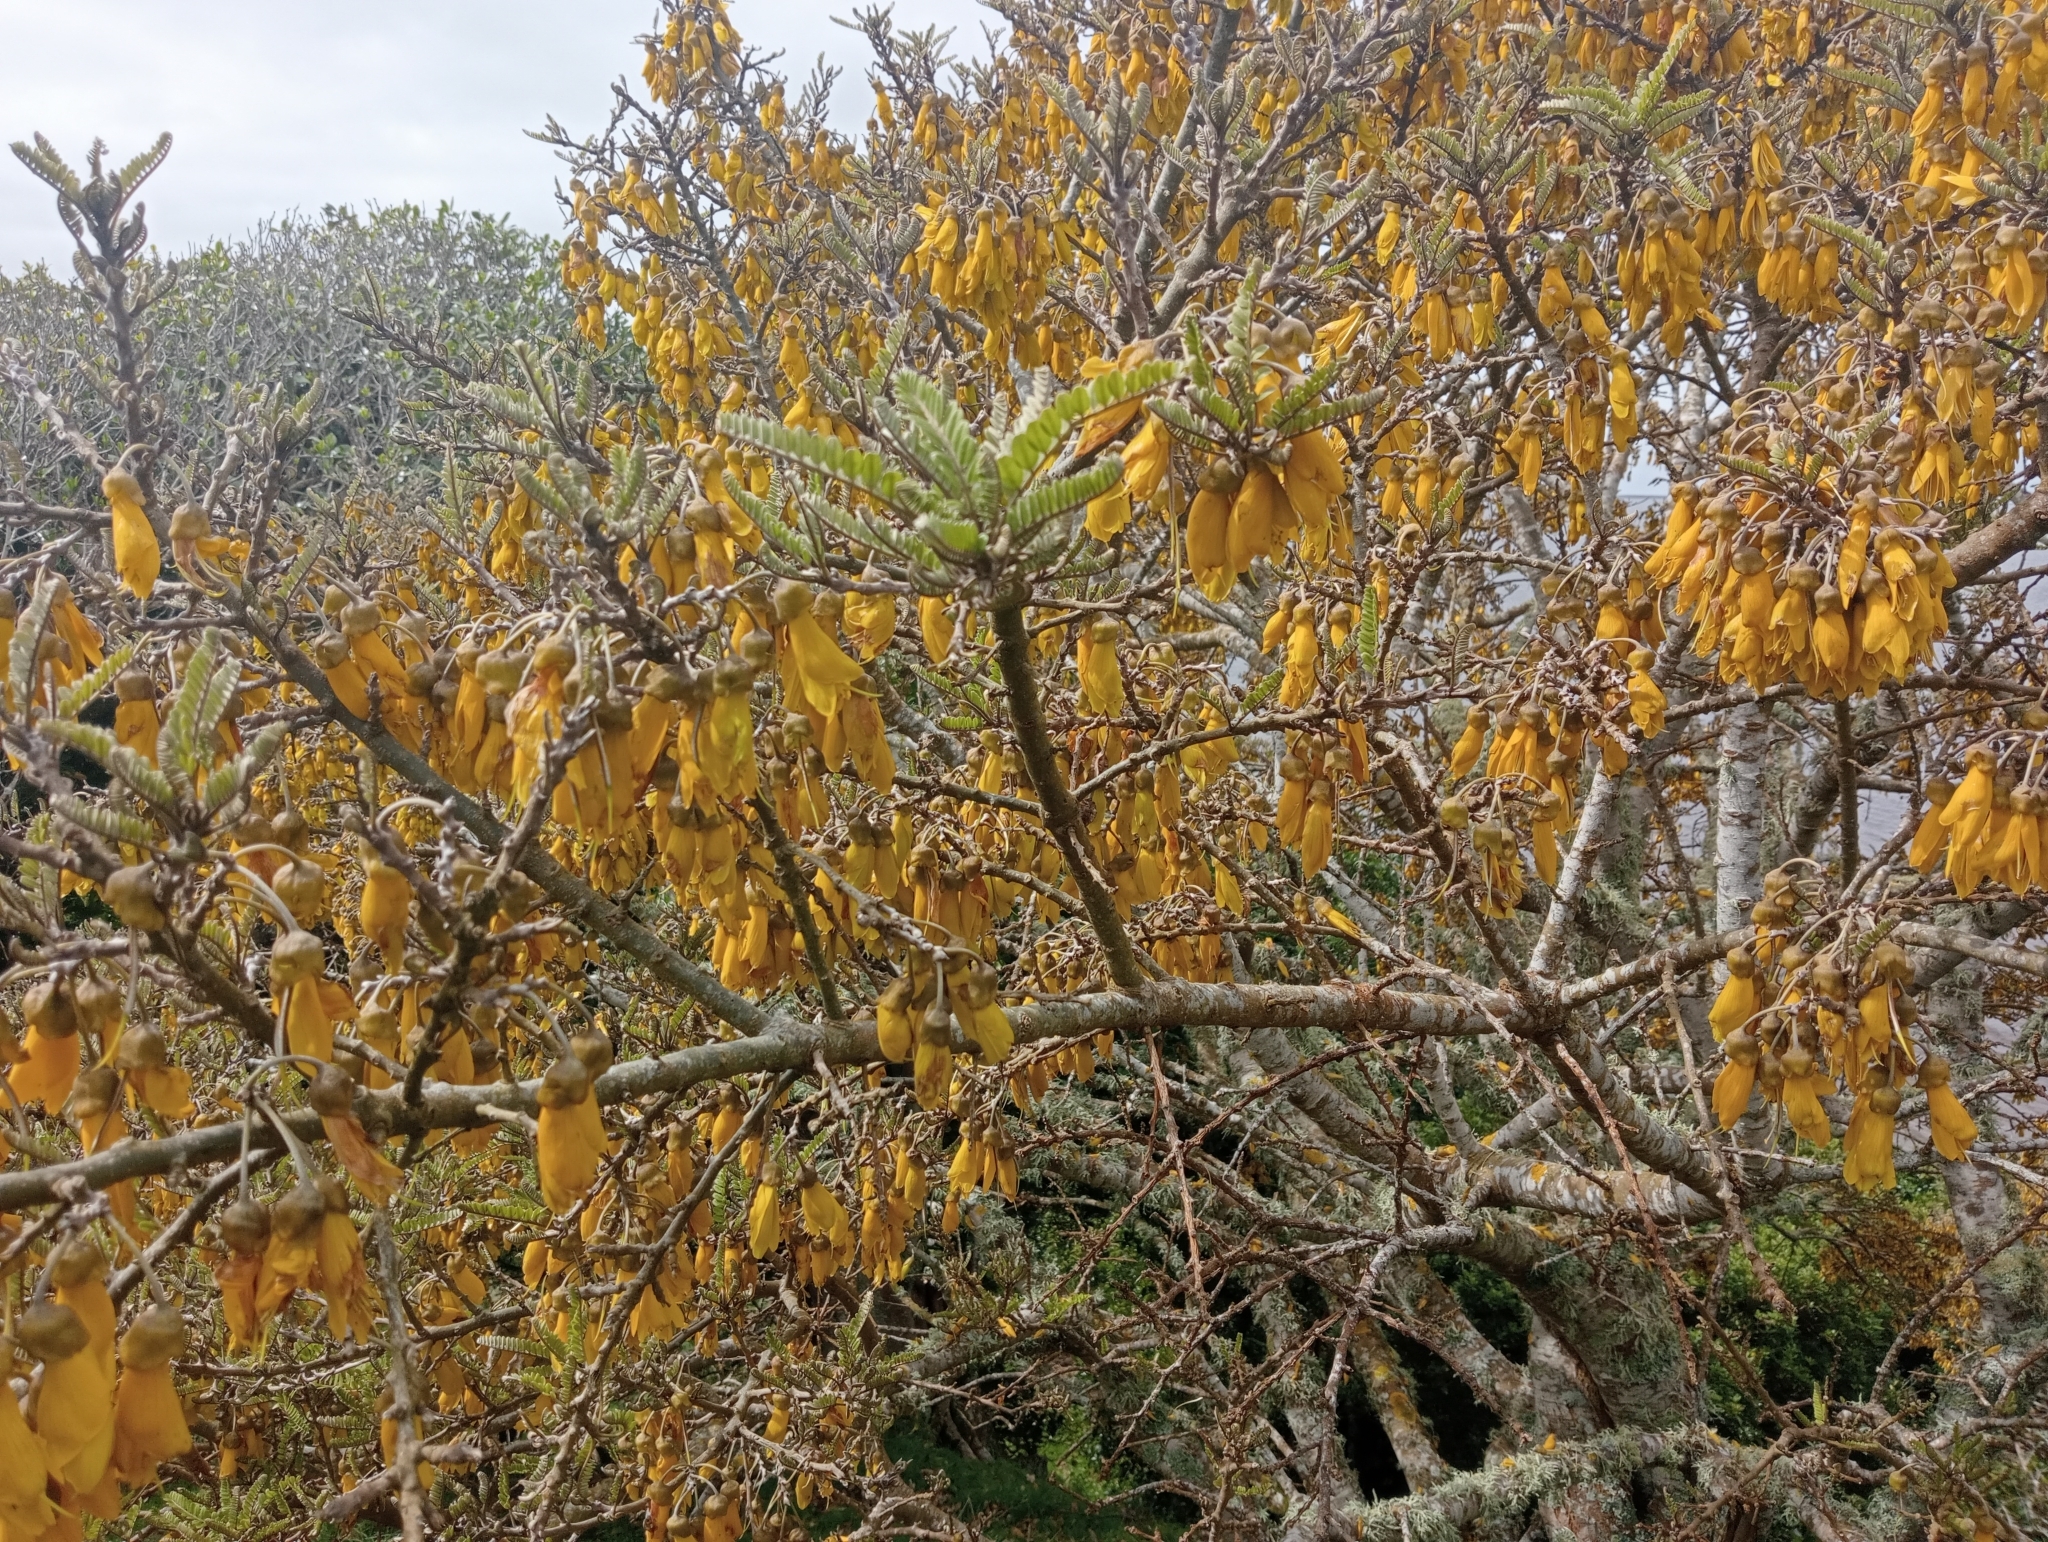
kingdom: Plantae
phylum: Tracheophyta
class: Magnoliopsida
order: Fabales
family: Fabaceae
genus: Sophora
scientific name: Sophora chathamica
